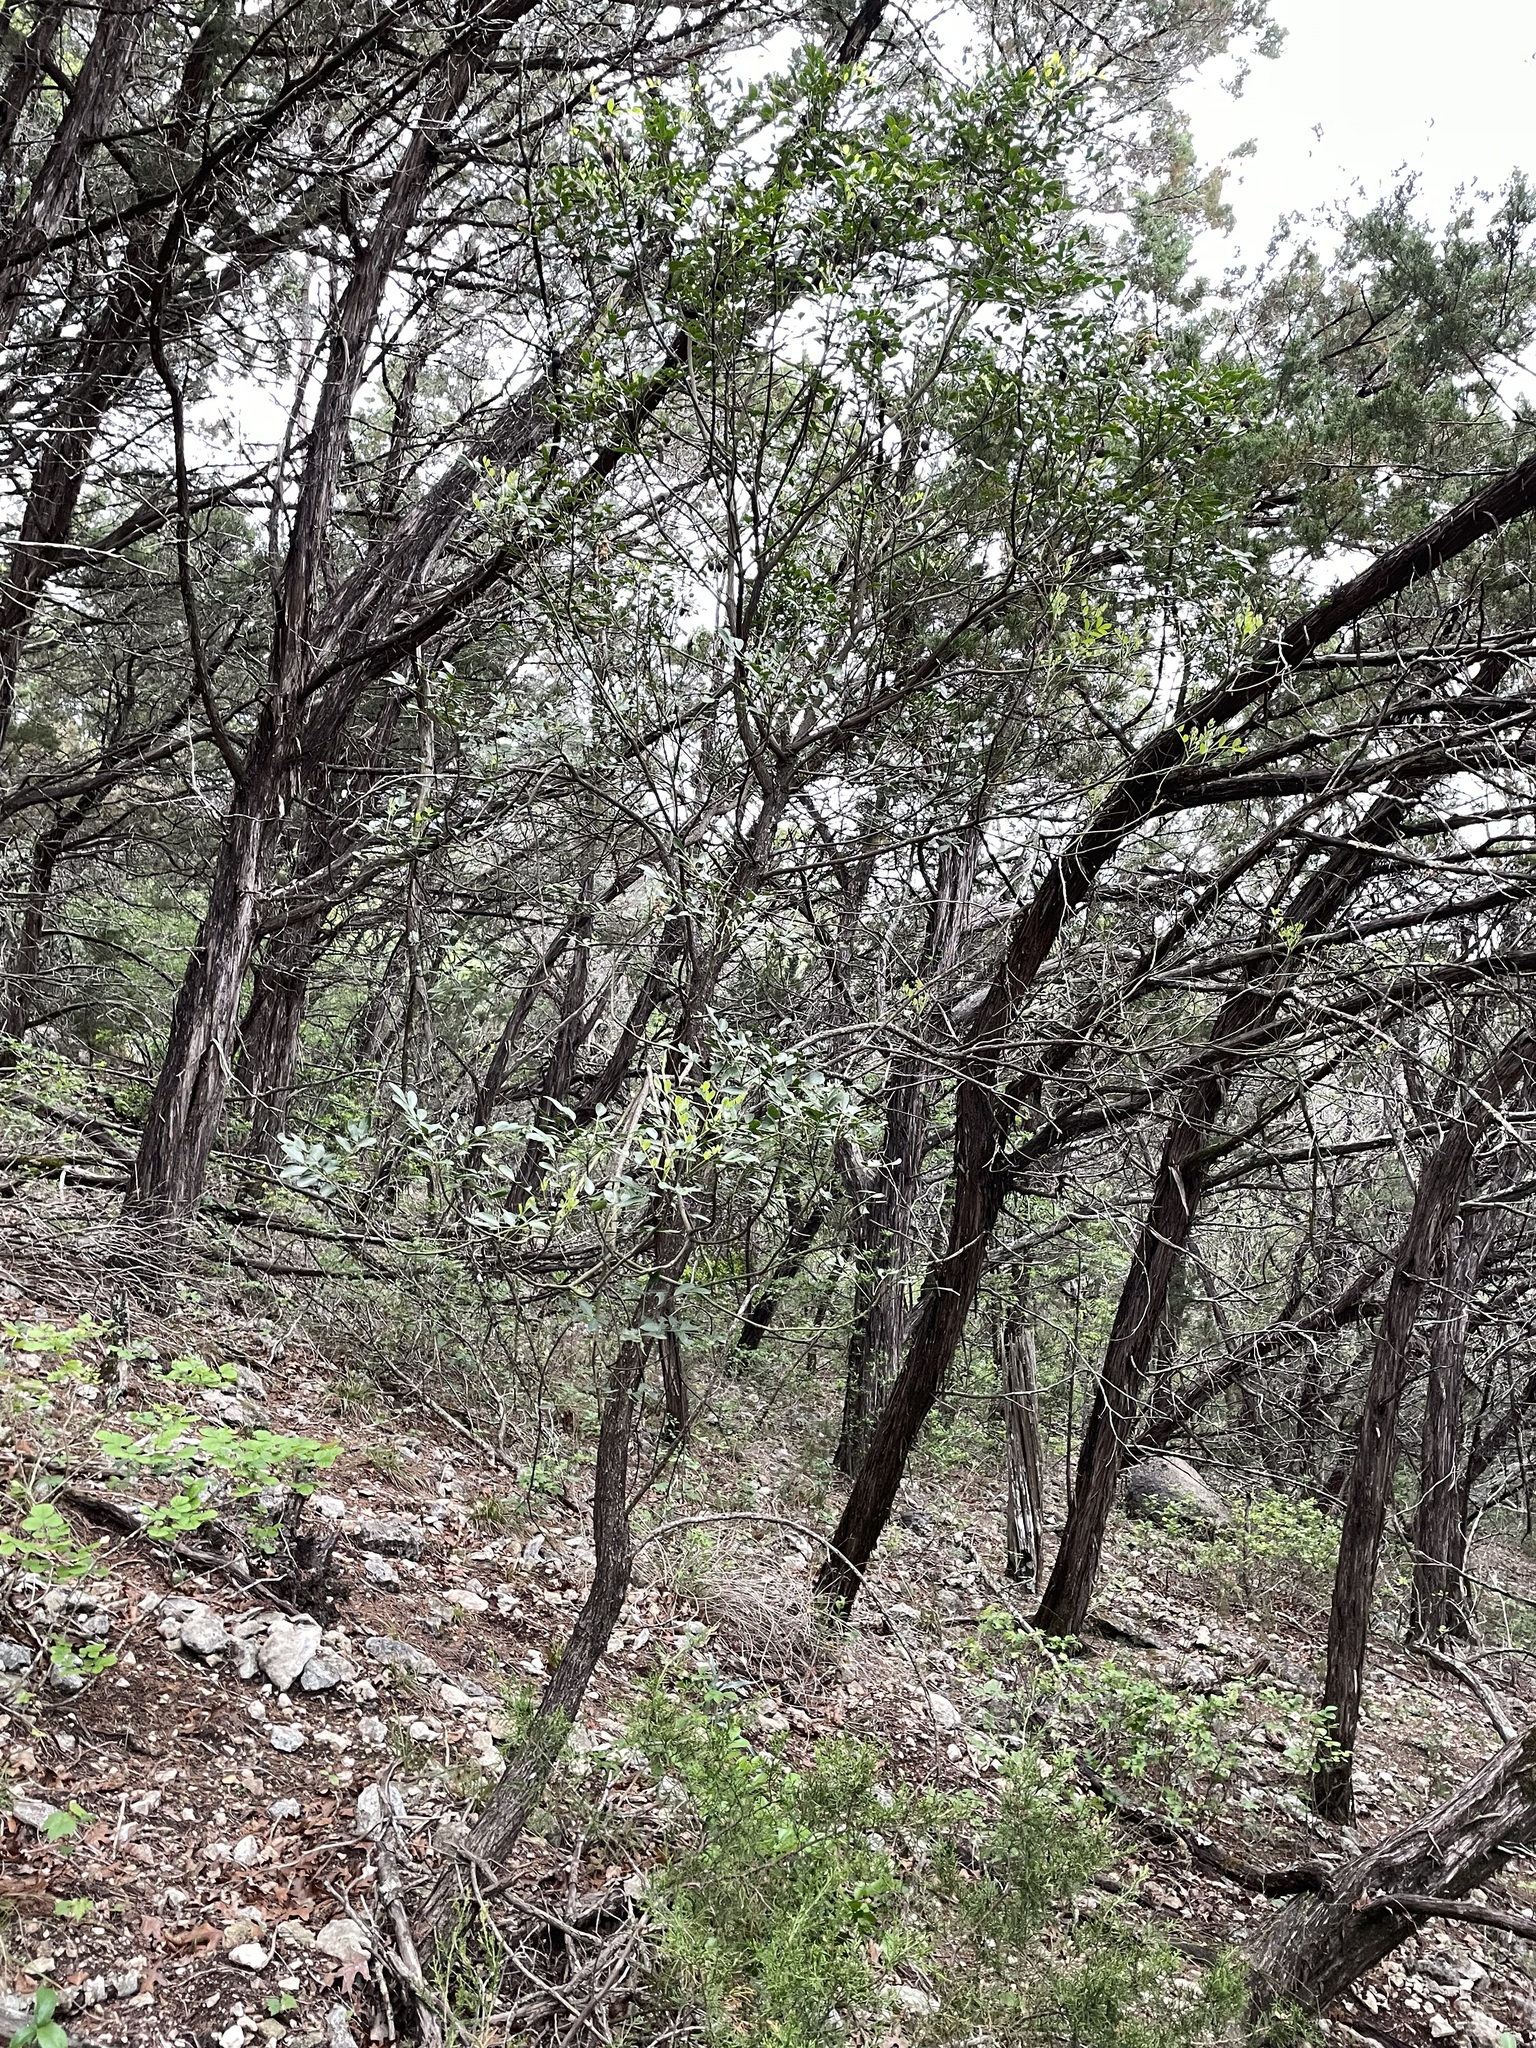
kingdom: Plantae
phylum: Tracheophyta
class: Magnoliopsida
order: Fabales
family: Fabaceae
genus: Dermatophyllum
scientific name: Dermatophyllum secundiflorum
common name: Texas-mountain-laurel
